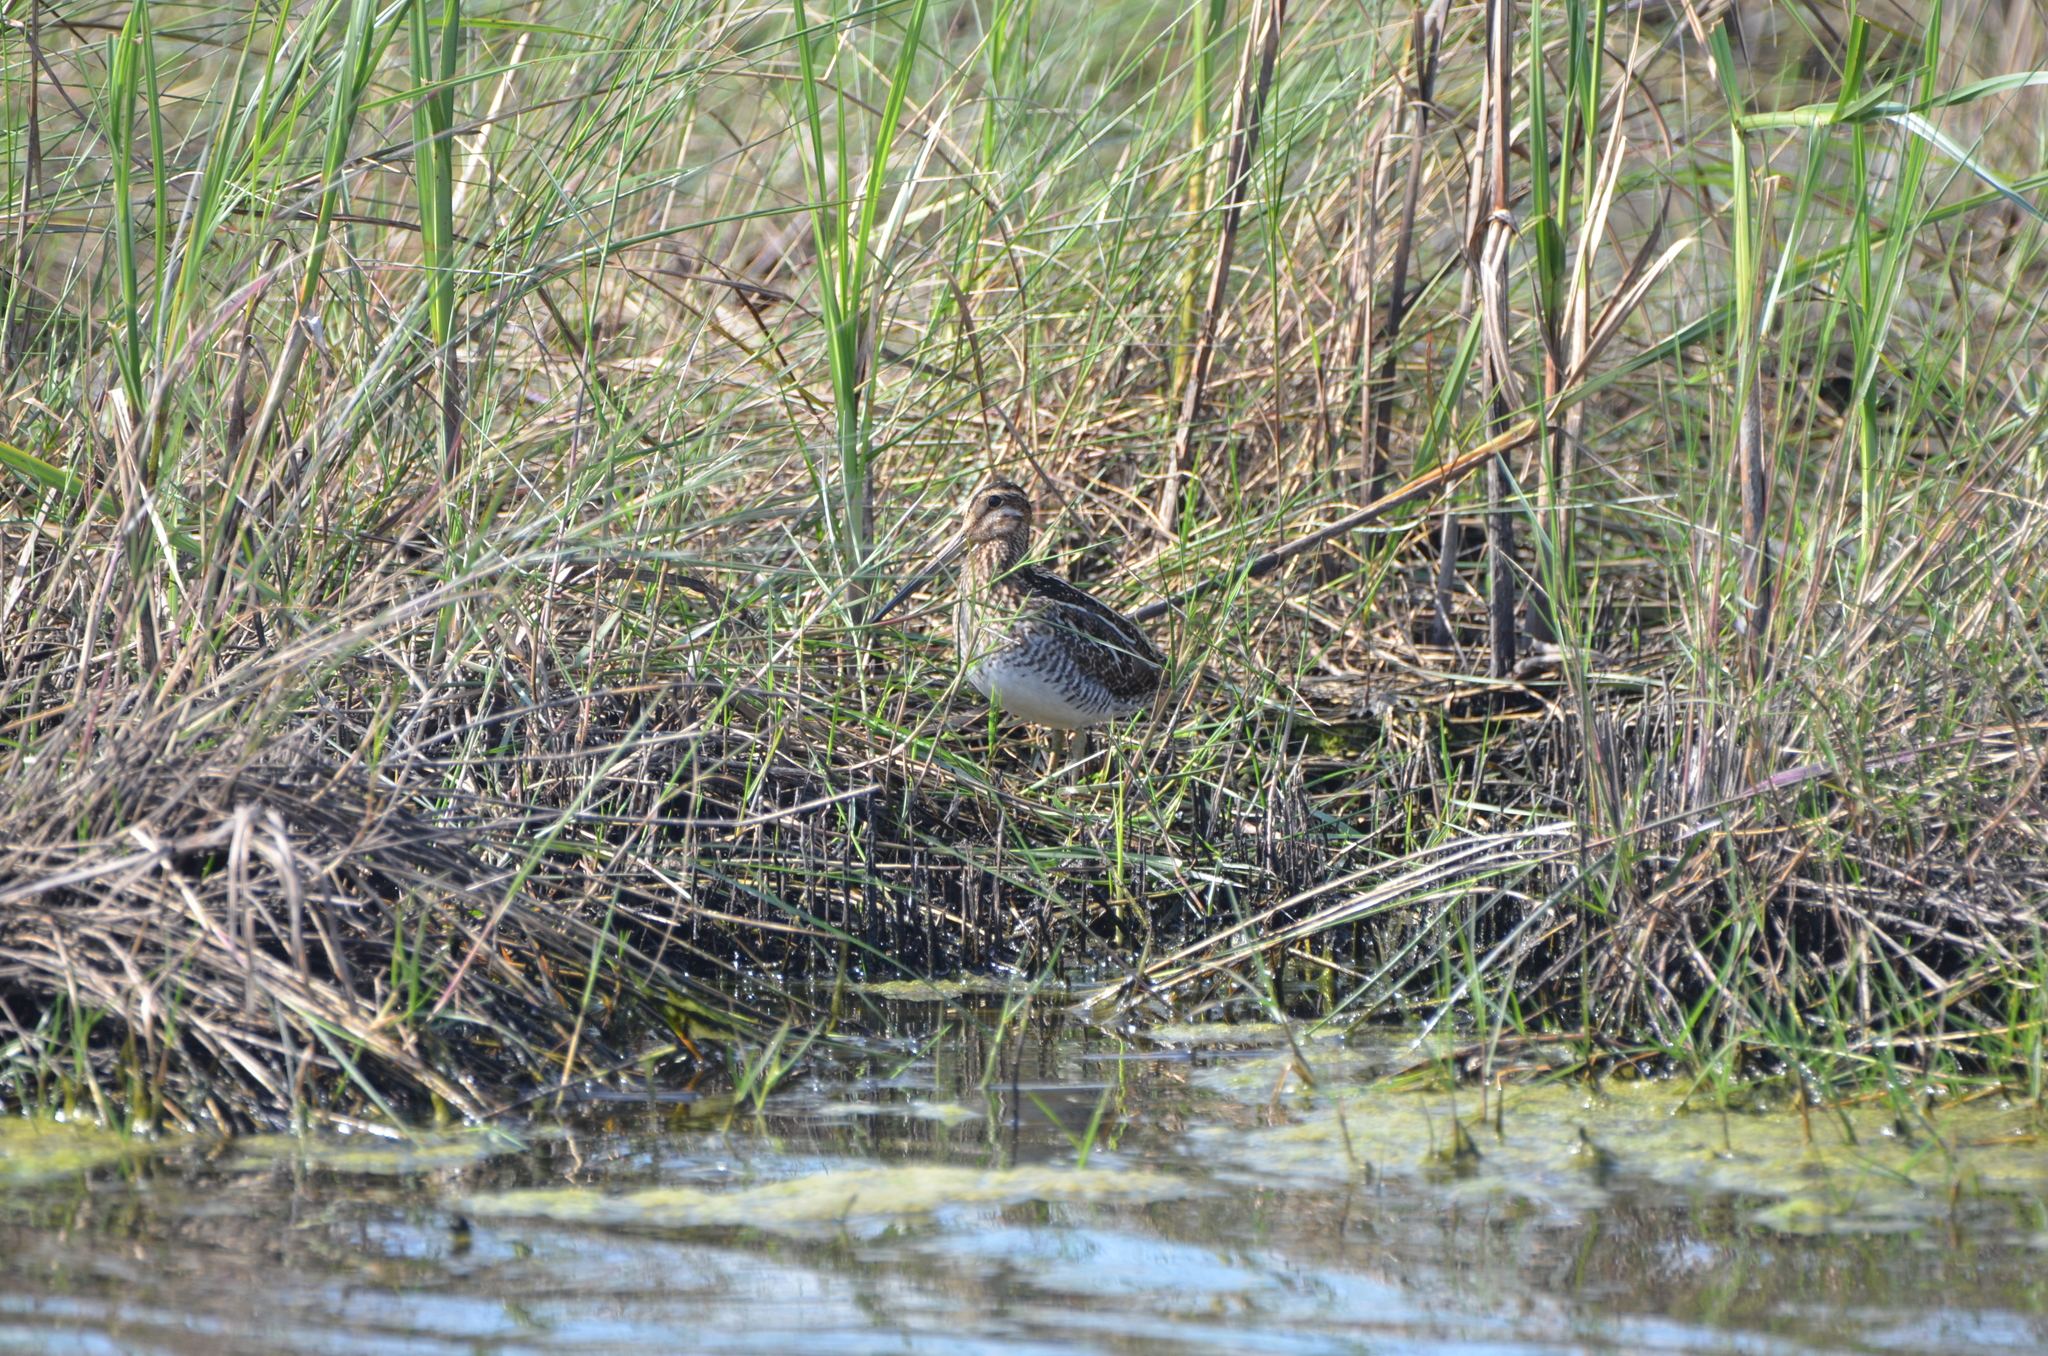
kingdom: Animalia
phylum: Chordata
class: Aves
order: Charadriiformes
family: Scolopacidae
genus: Gallinago
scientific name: Gallinago delicata
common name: Wilson's snipe
